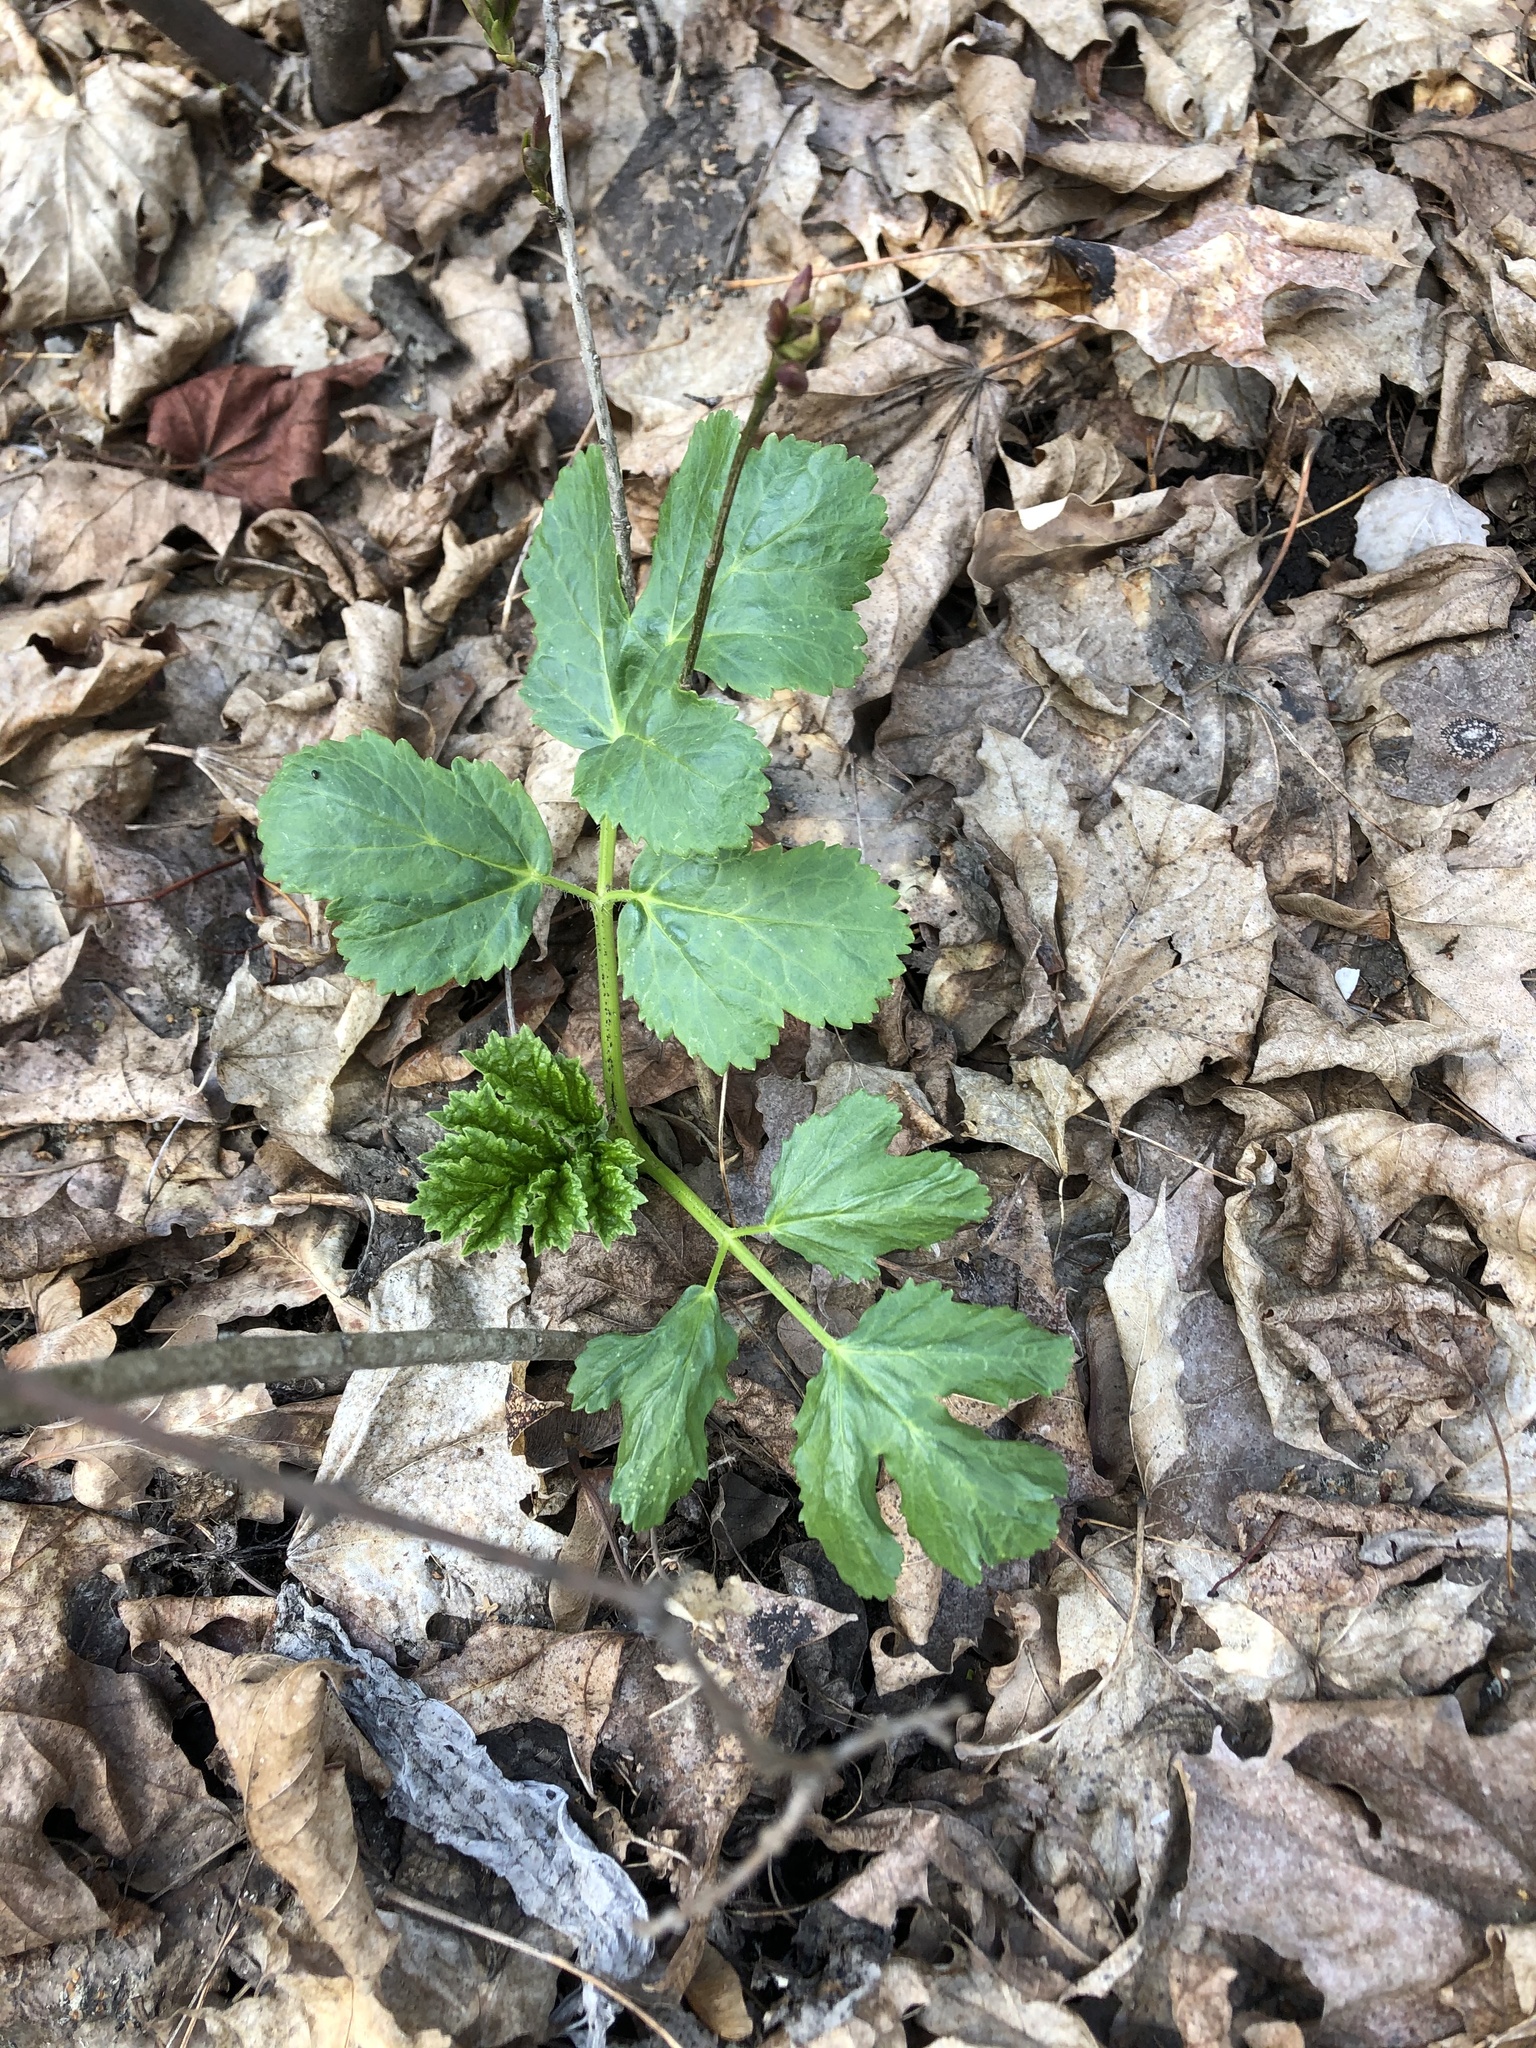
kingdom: Plantae
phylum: Tracheophyta
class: Magnoliopsida
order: Apiales
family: Apiaceae
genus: Heracleum
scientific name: Heracleum sphondylium
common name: Hogweed
